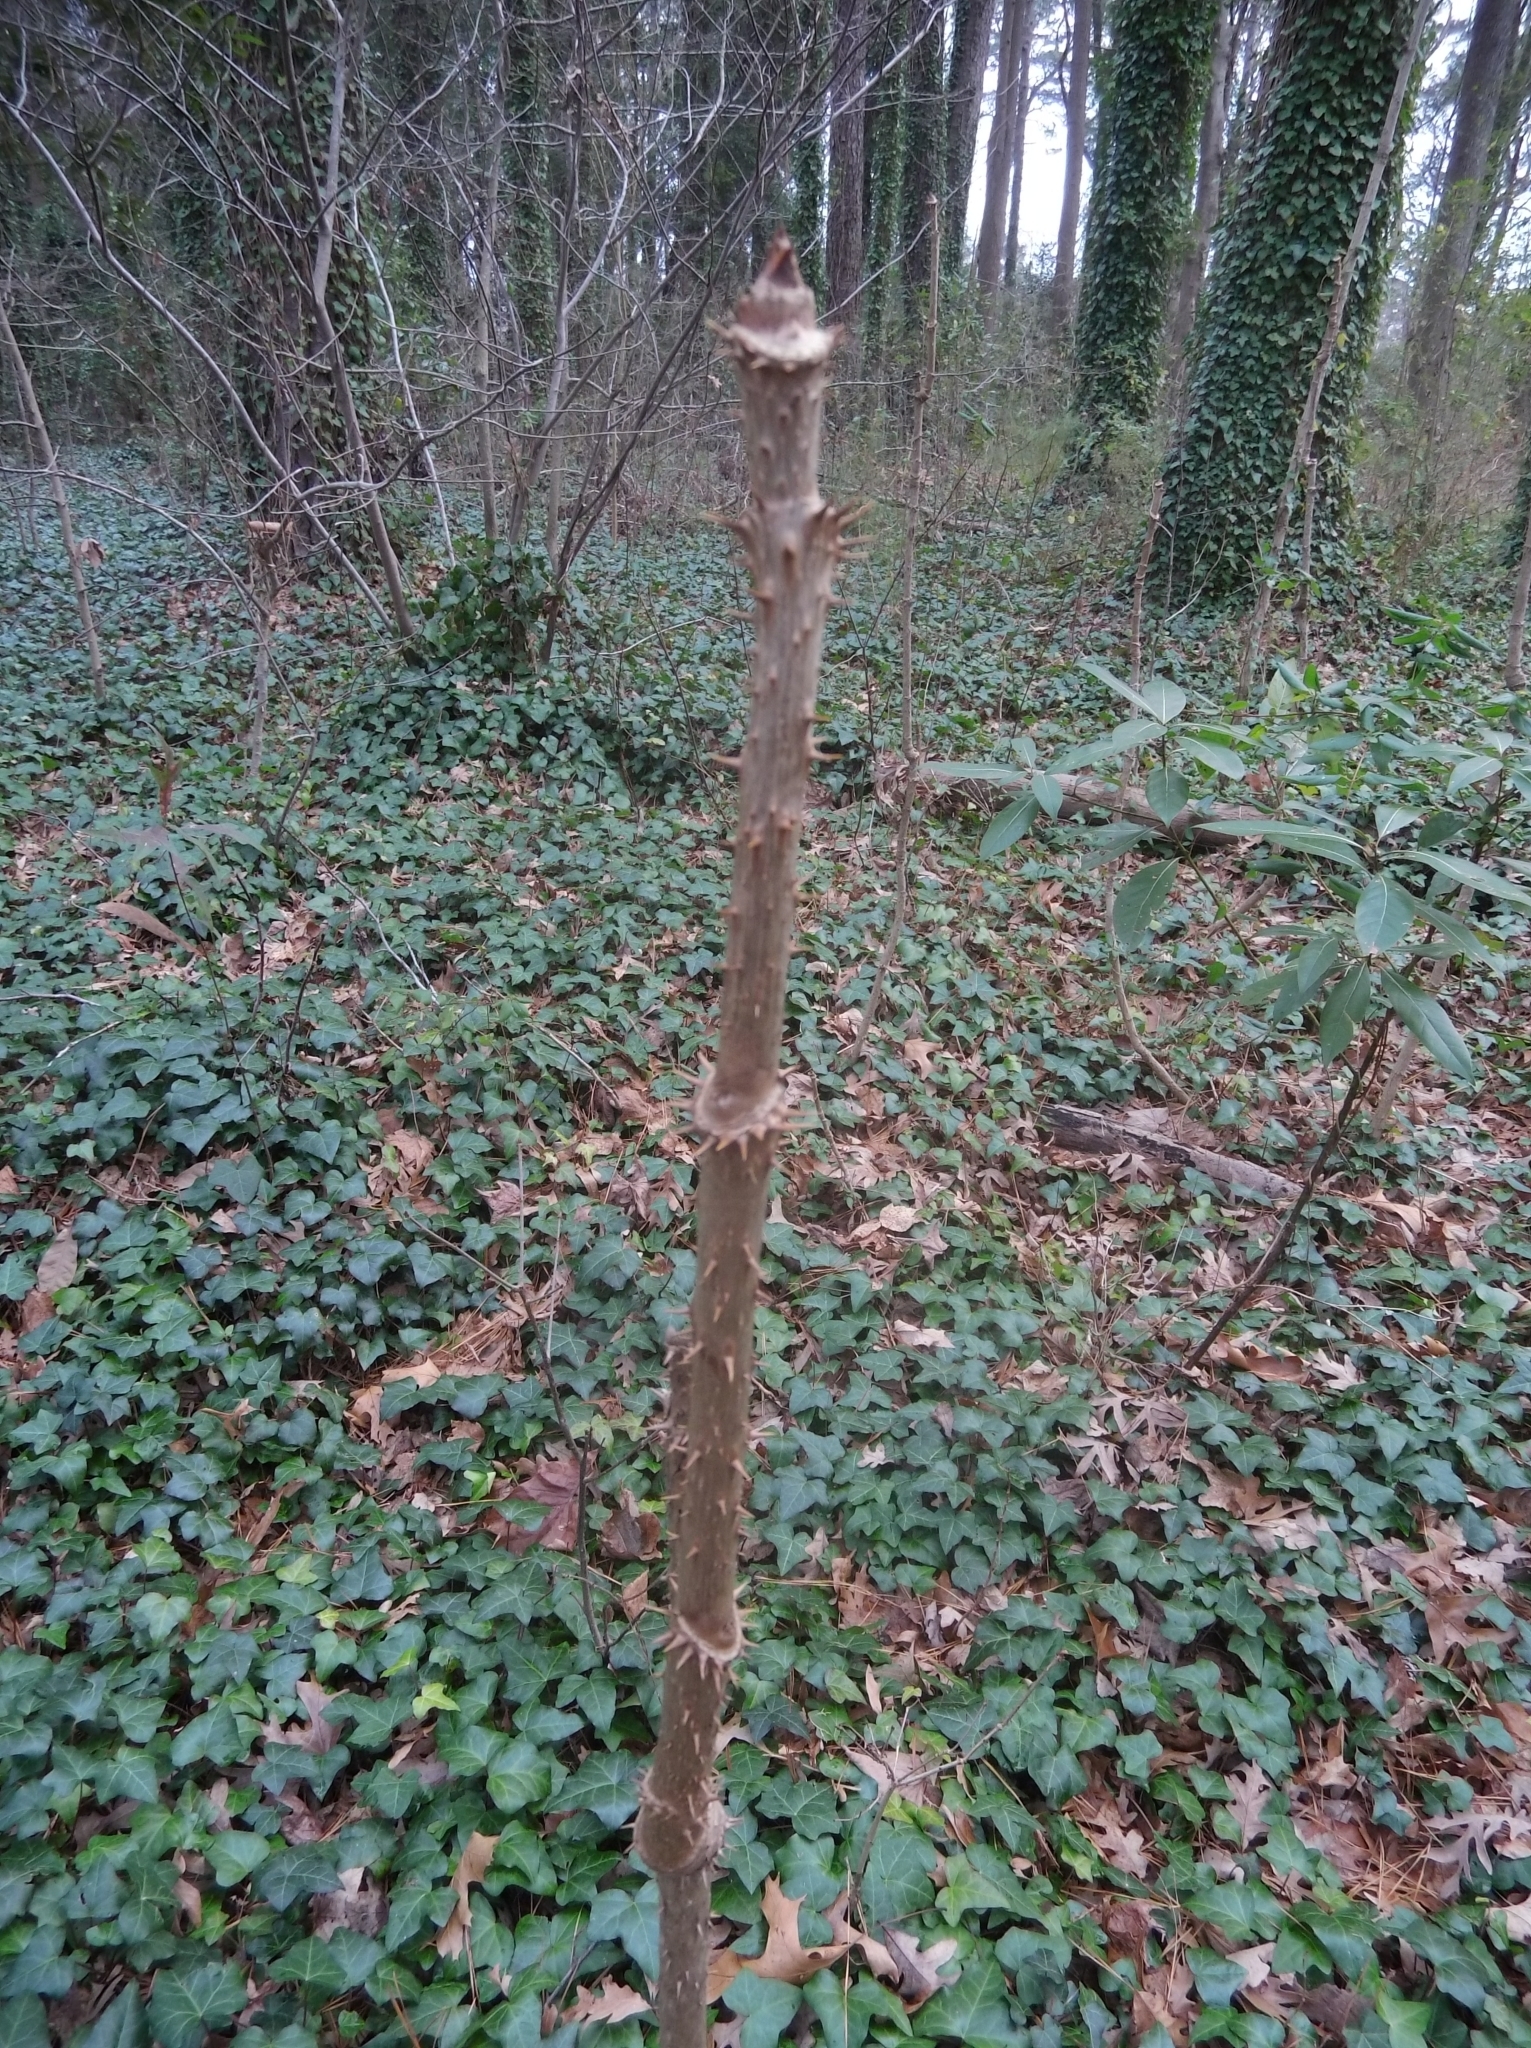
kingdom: Plantae
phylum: Tracheophyta
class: Magnoliopsida
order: Apiales
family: Araliaceae
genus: Aralia
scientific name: Aralia spinosa
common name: Hercules'-club
